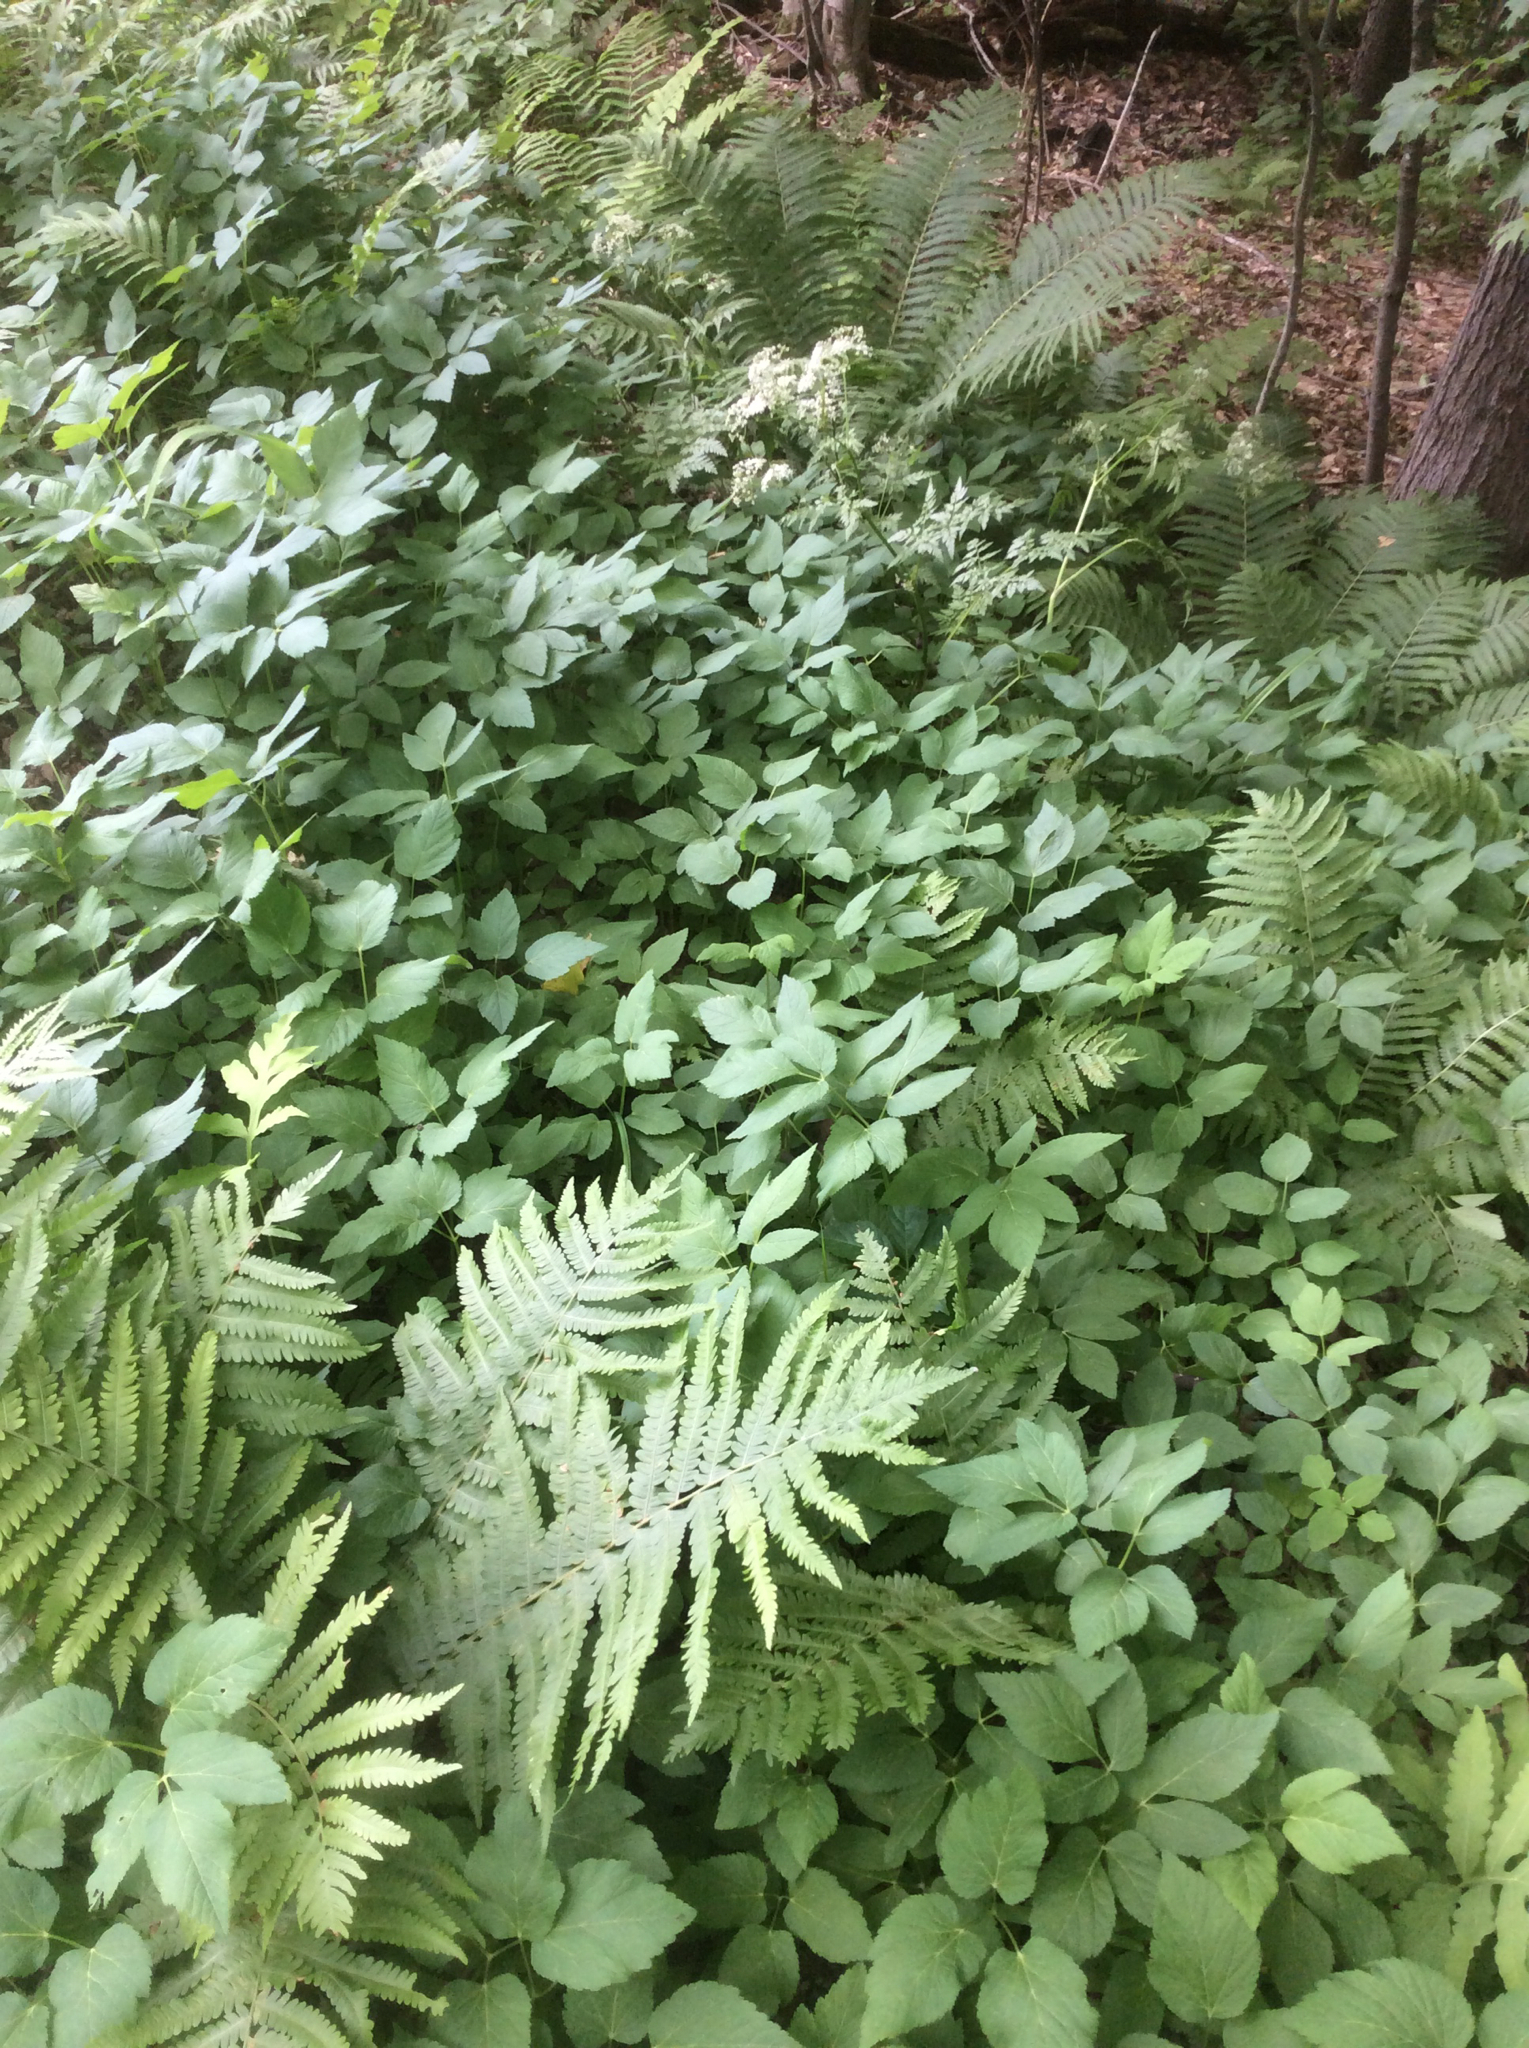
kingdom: Plantae
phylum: Tracheophyta
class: Magnoliopsida
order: Apiales
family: Apiaceae
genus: Aegopodium
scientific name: Aegopodium podagraria
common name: Ground-elder
